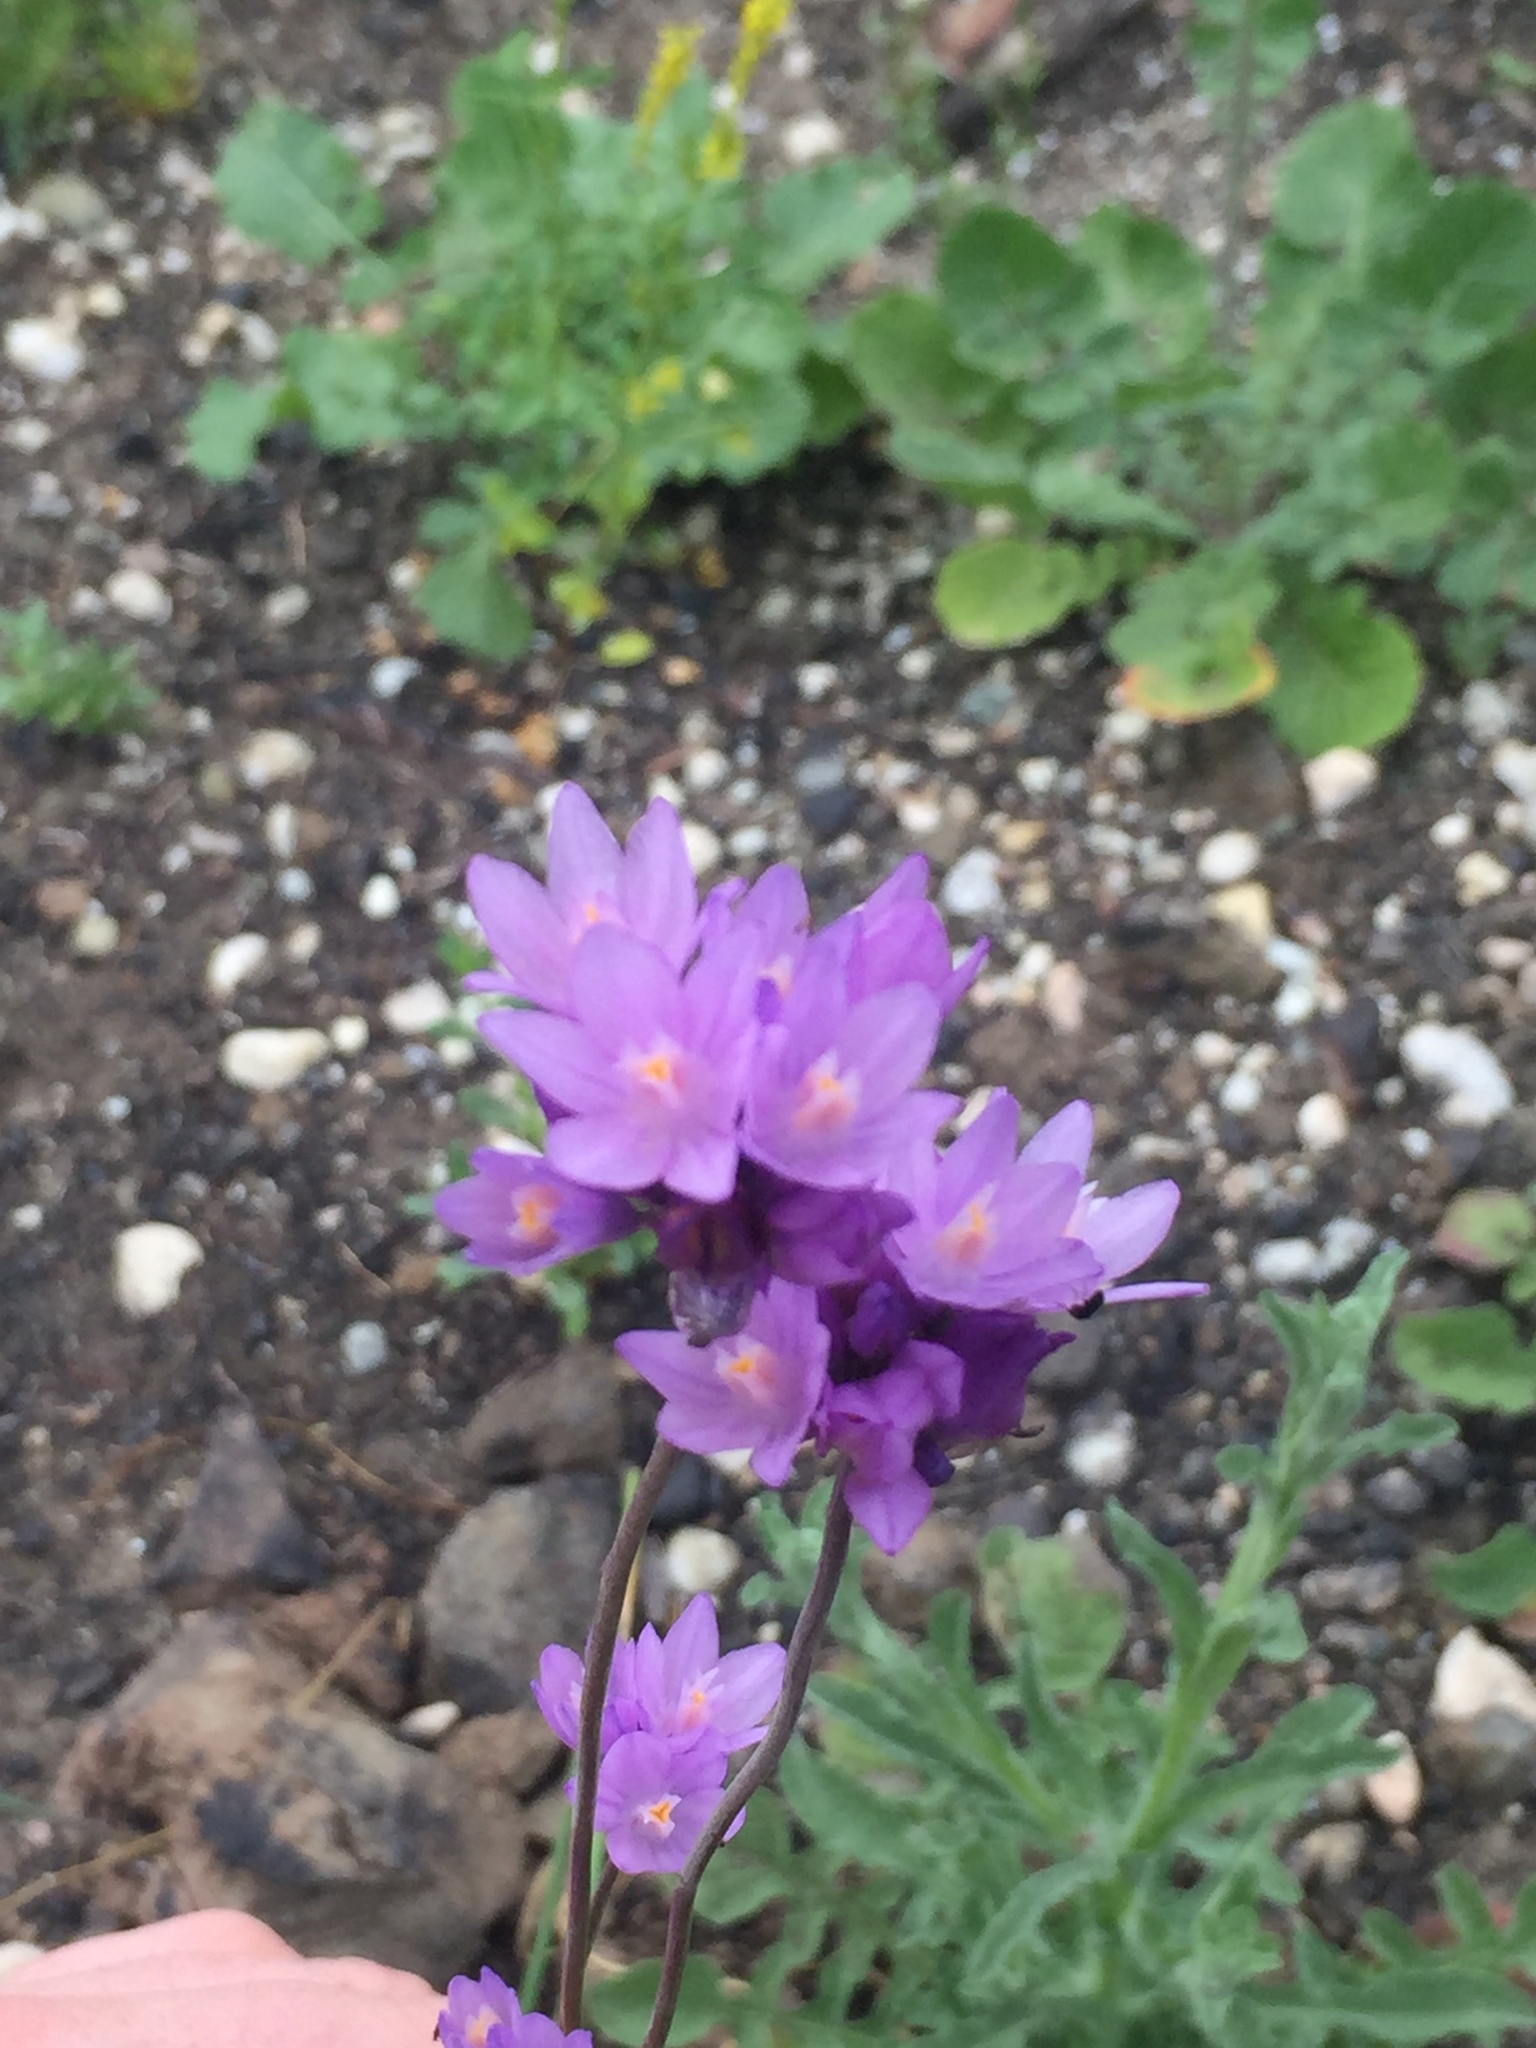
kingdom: Plantae
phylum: Tracheophyta
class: Liliopsida
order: Asparagales
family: Asparagaceae
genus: Dipterostemon
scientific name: Dipterostemon capitatus
